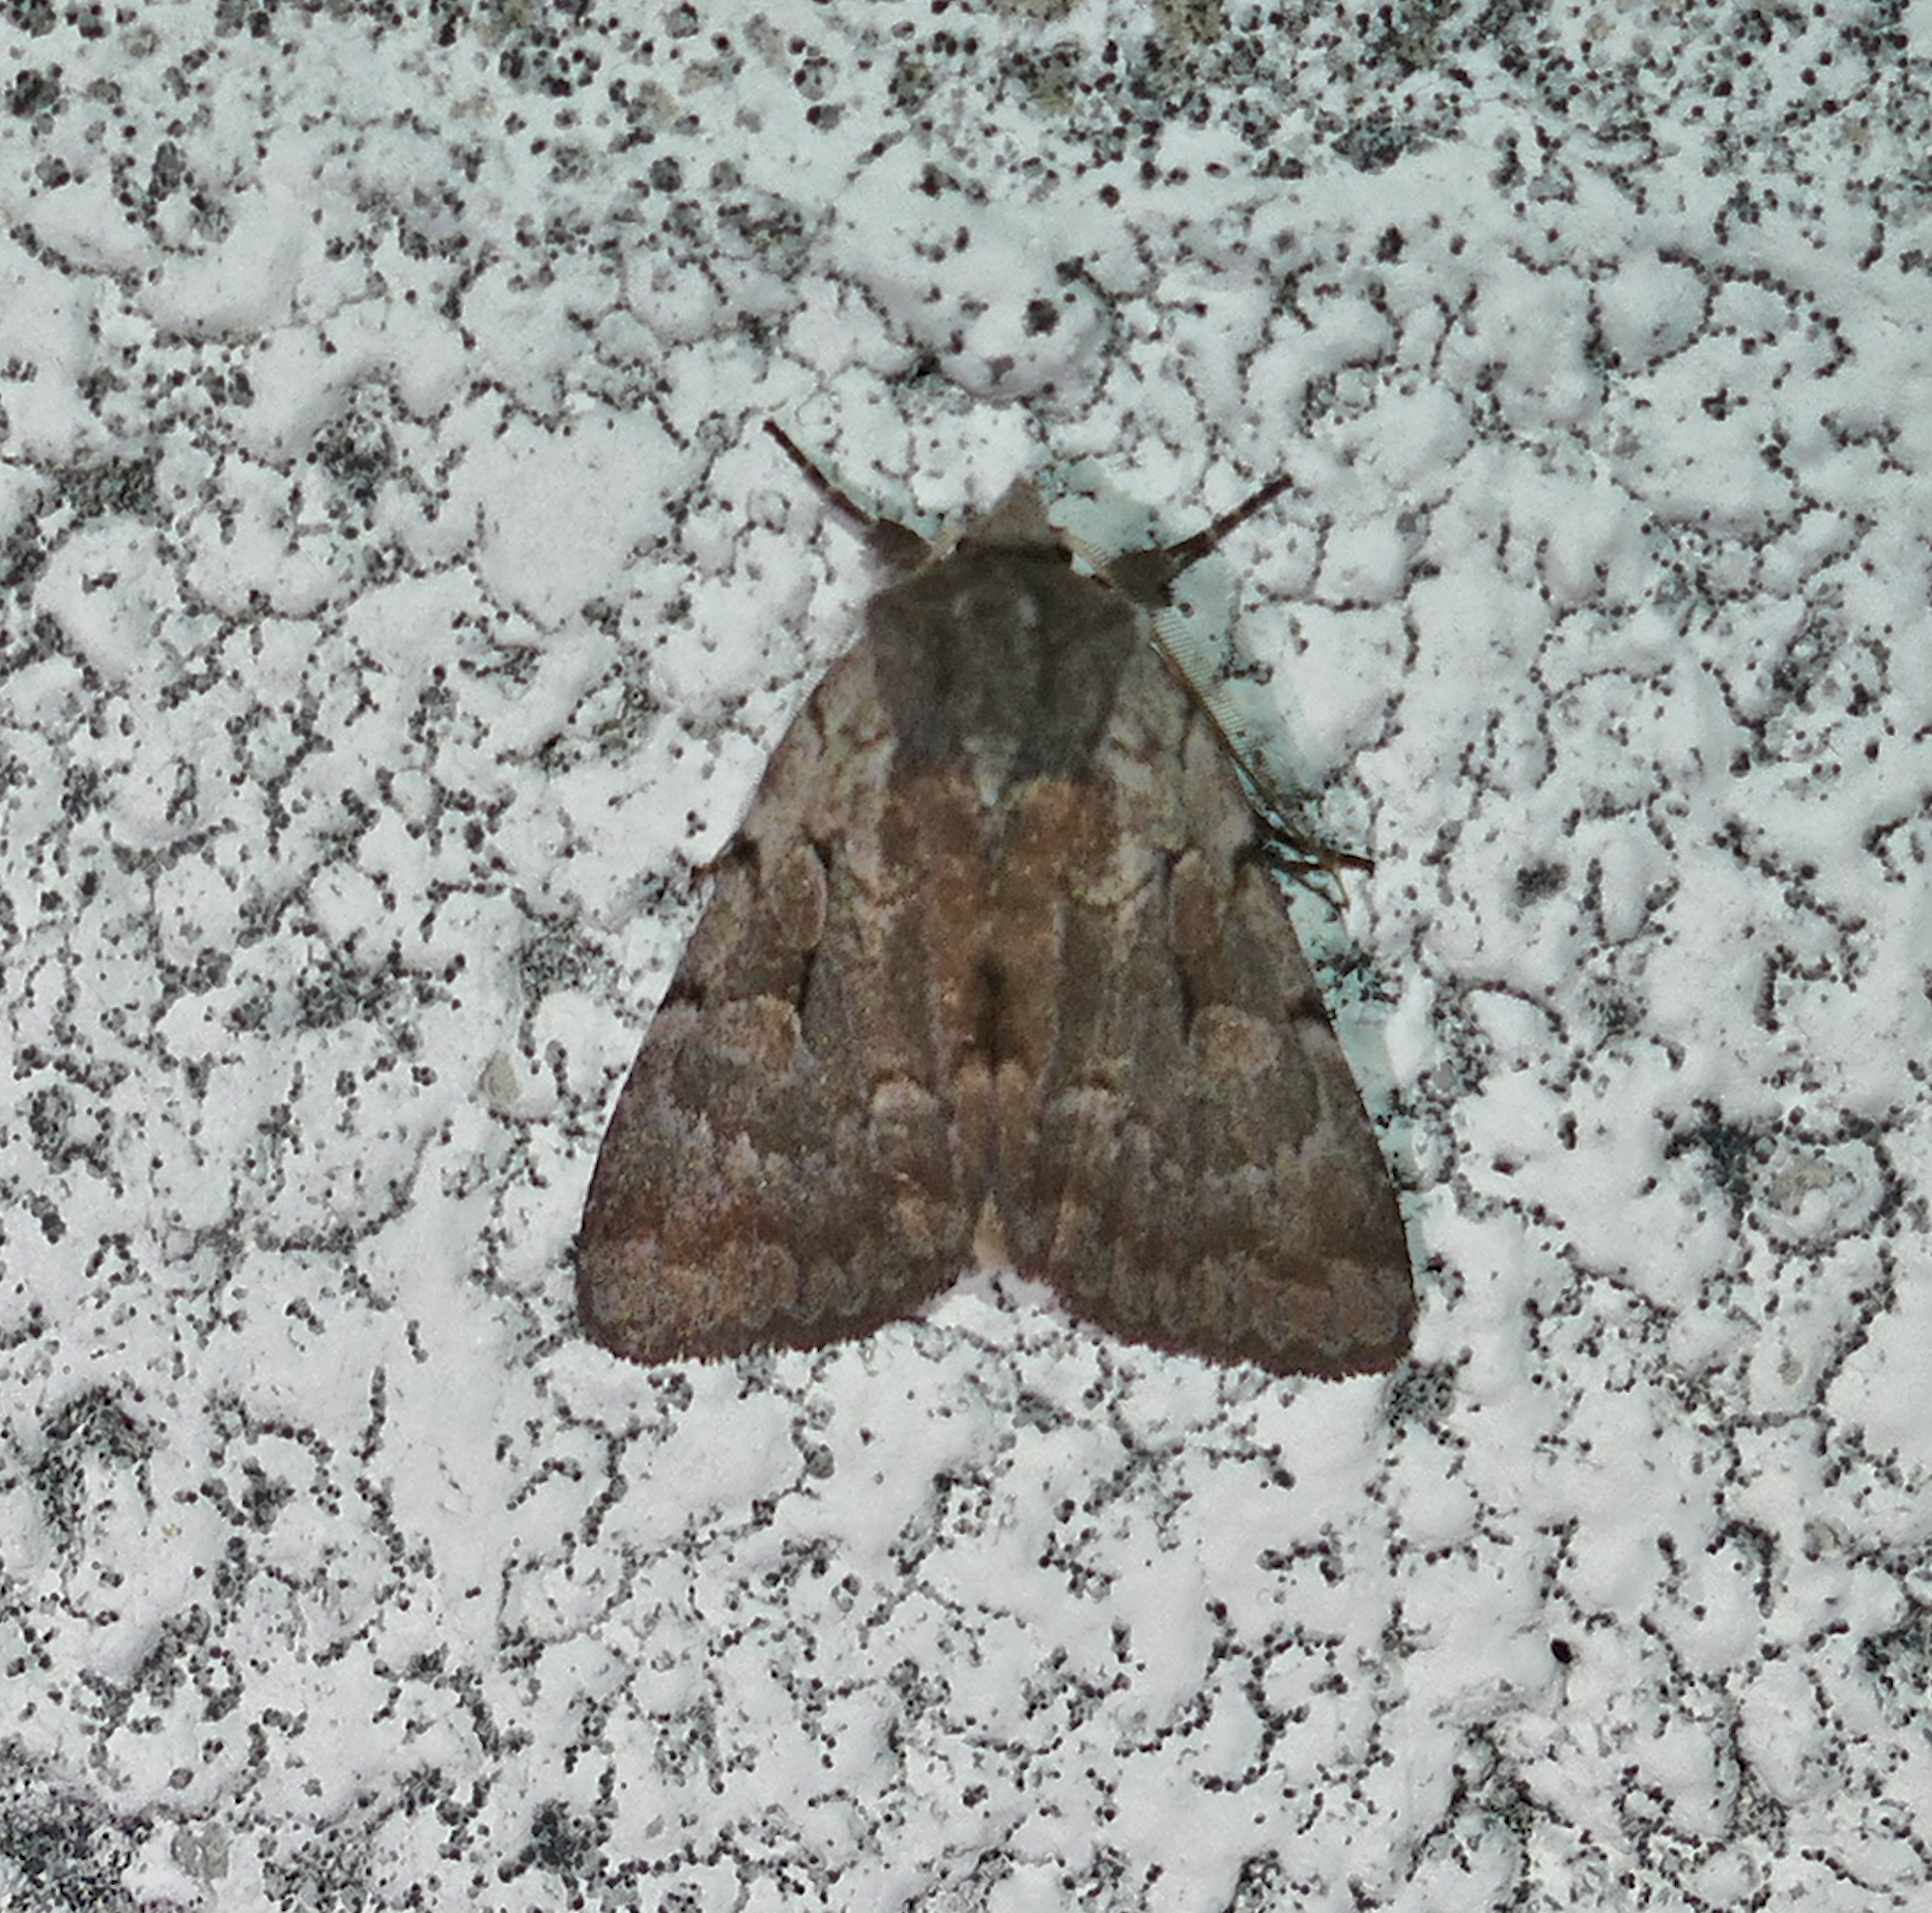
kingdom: Animalia
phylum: Arthropoda
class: Insecta
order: Lepidoptera
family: Noctuidae
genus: Xestia
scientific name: Xestia elimata
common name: Chameleon caterpillar
